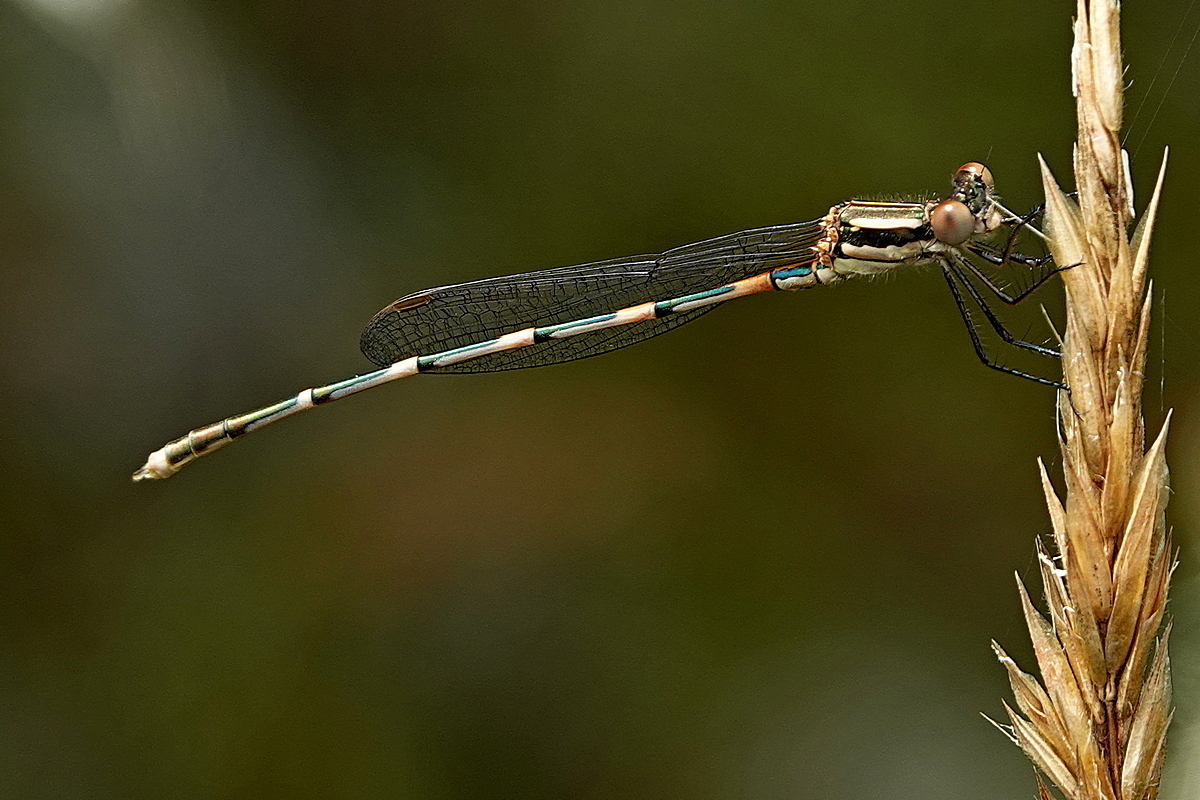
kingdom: Animalia
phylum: Arthropoda
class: Insecta
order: Odonata
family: Lestidae
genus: Austrolestes
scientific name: Austrolestes leda
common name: Wandering ringtail
